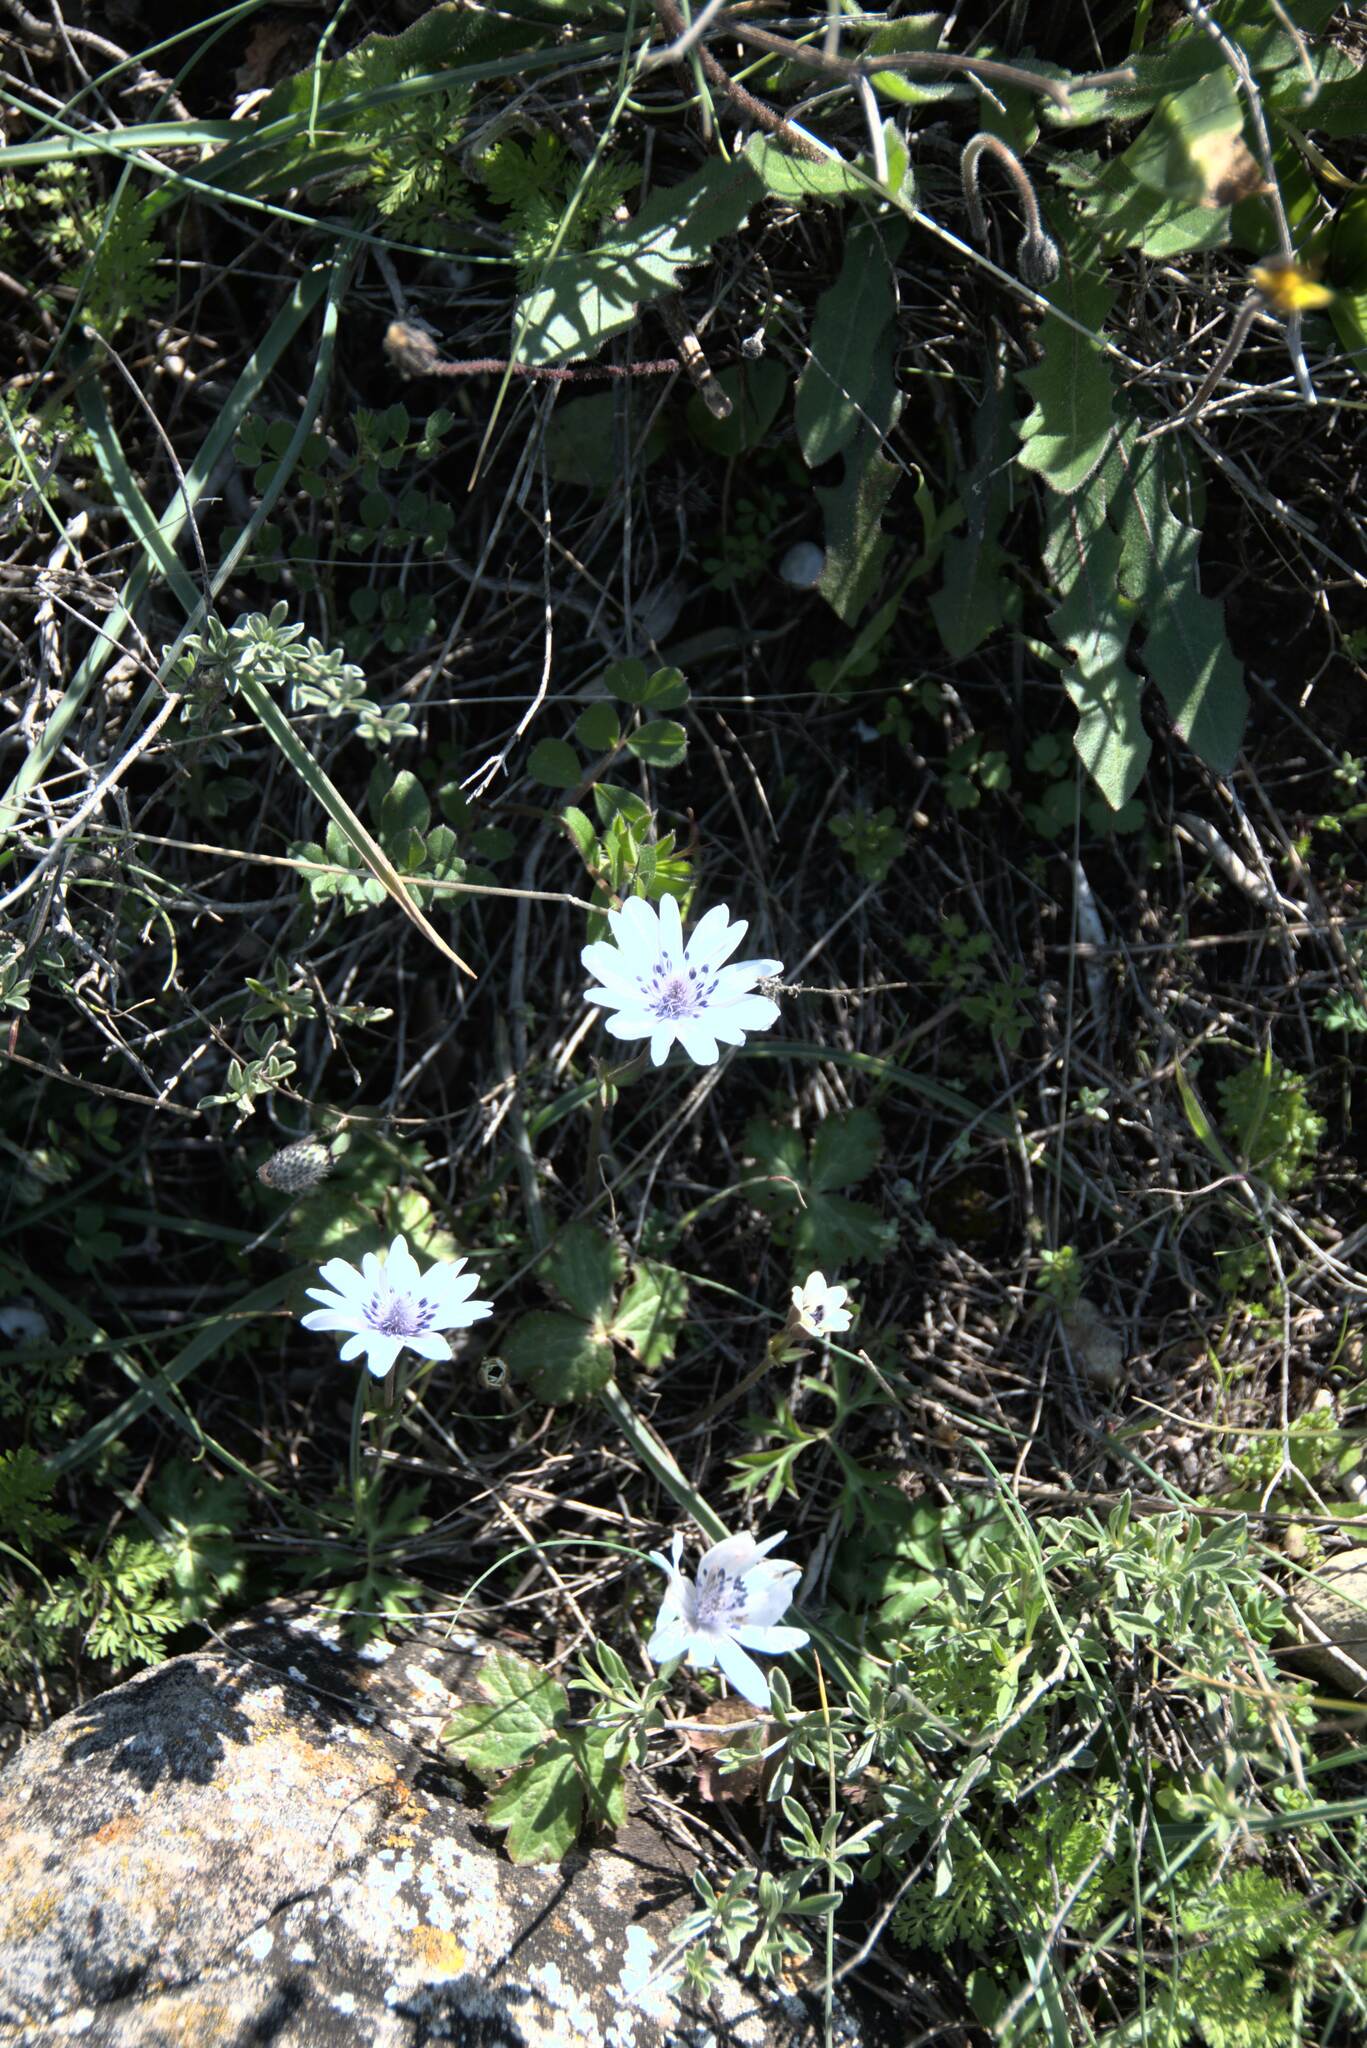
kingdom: Plantae
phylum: Tracheophyta
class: Magnoliopsida
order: Ranunculales
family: Ranunculaceae
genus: Anemone
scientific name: Anemone hortensis
